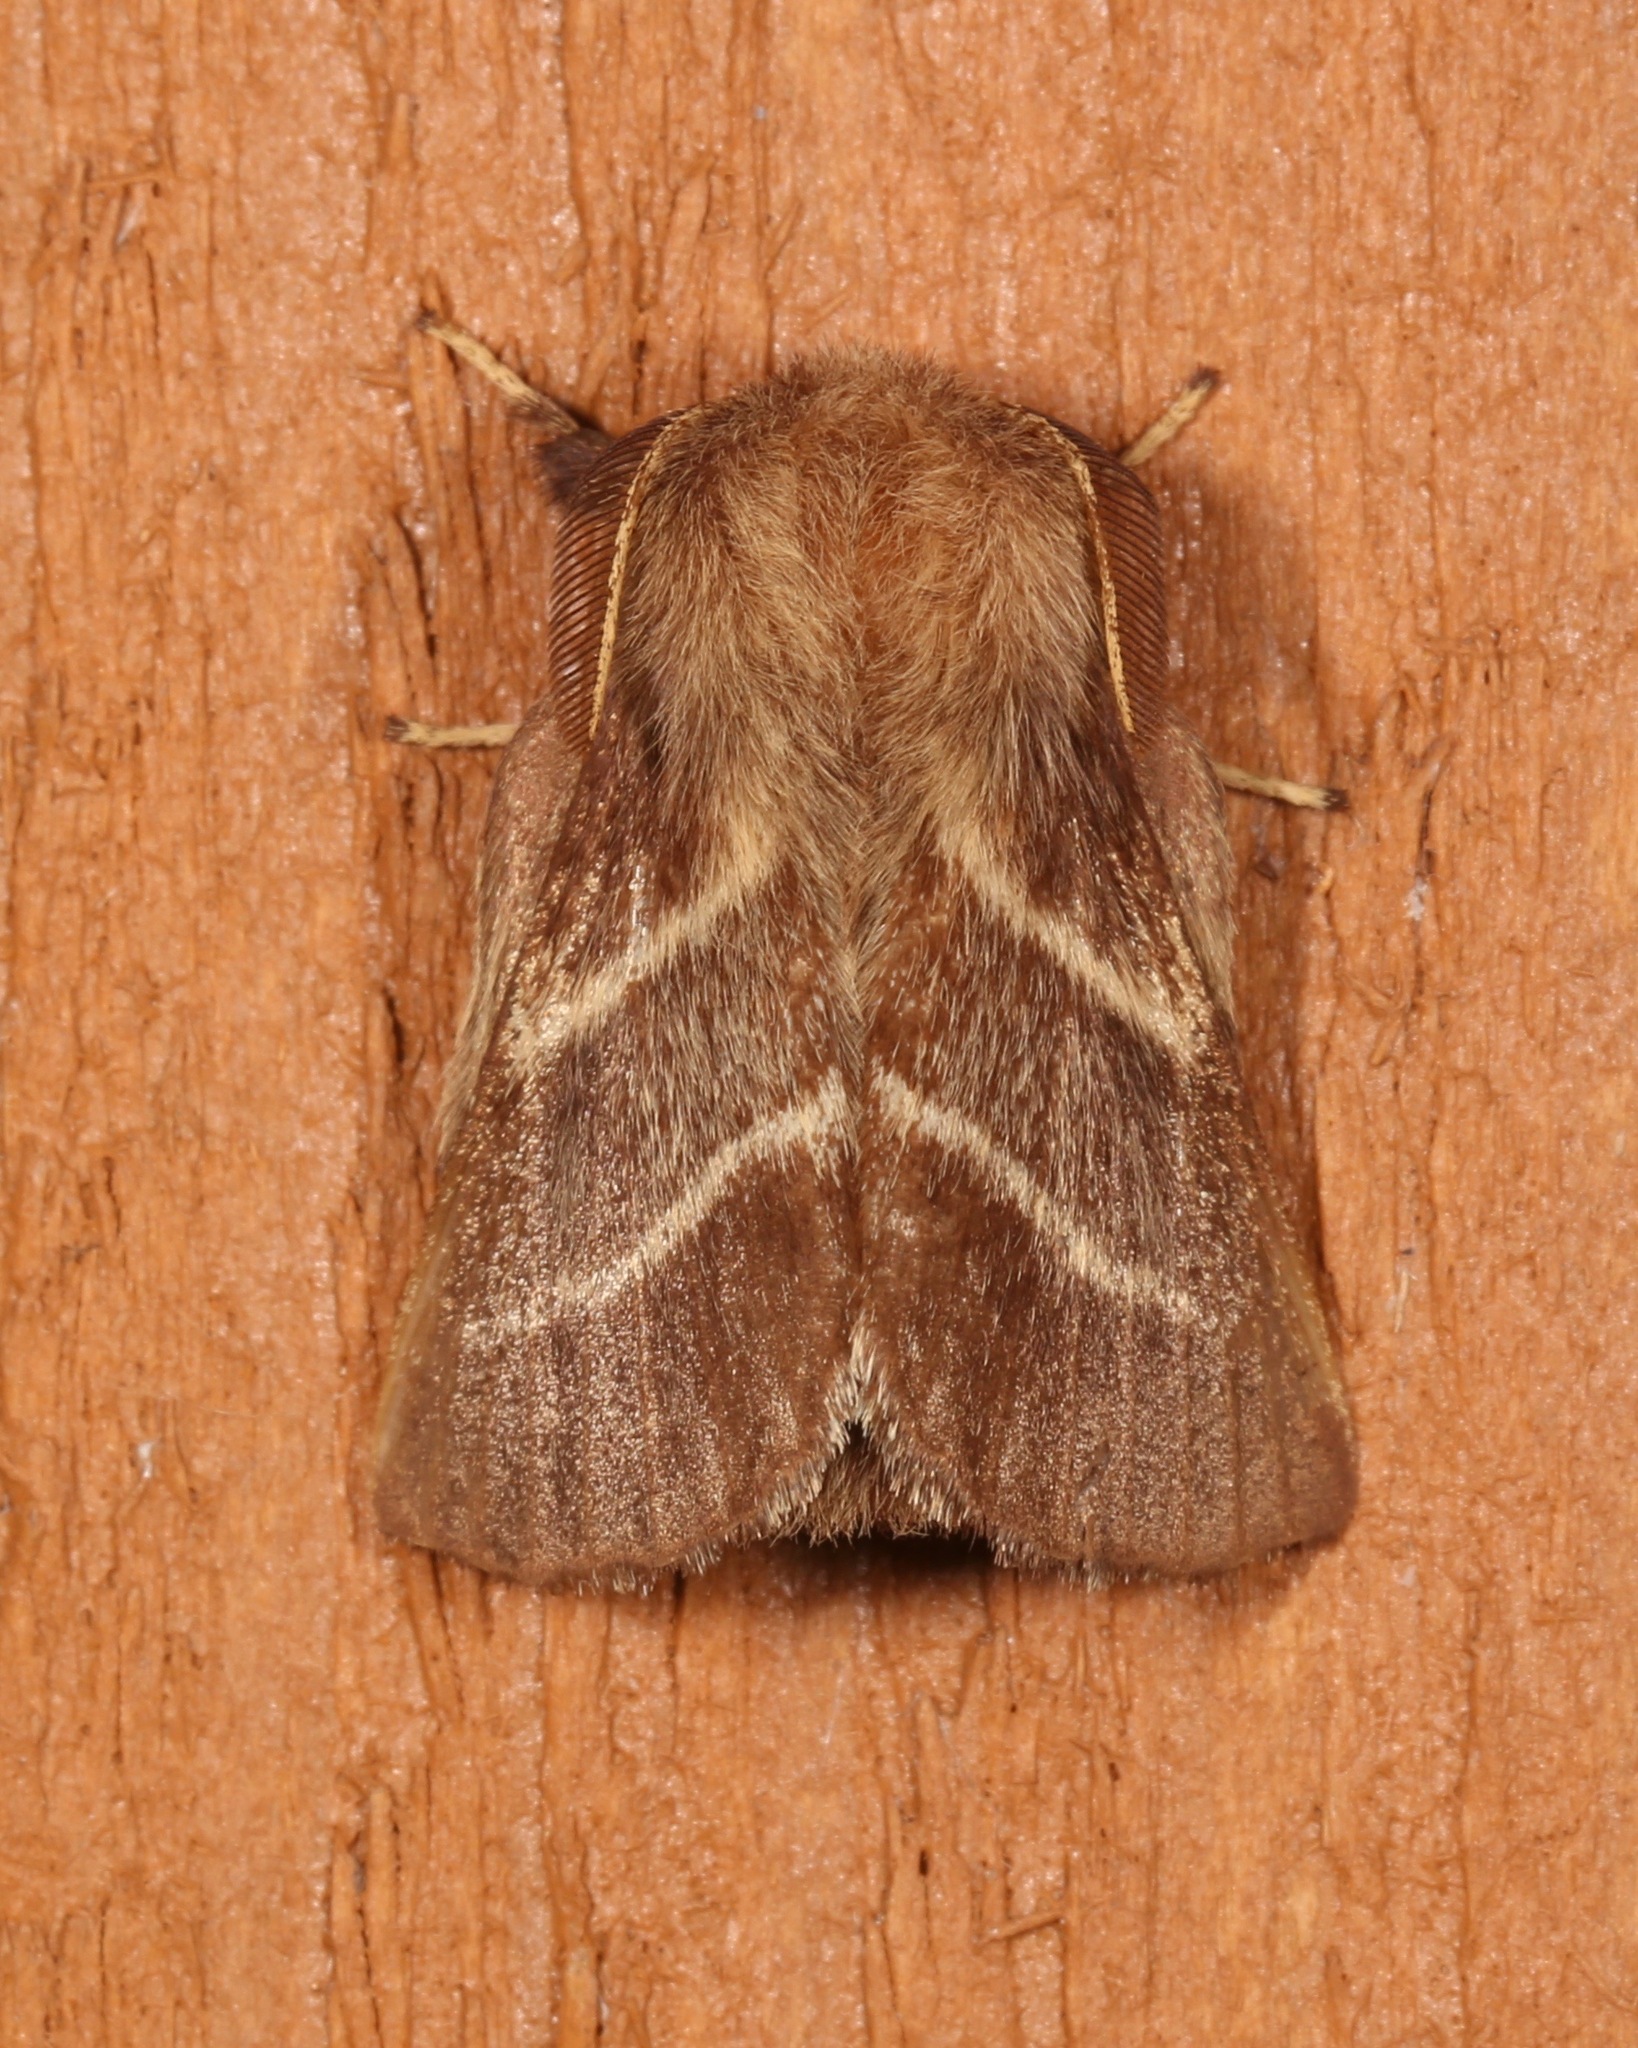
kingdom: Animalia
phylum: Arthropoda
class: Insecta
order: Lepidoptera
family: Lasiocampidae
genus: Malacosoma
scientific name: Malacosoma americana
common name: Eastern tent caterpillar moth
